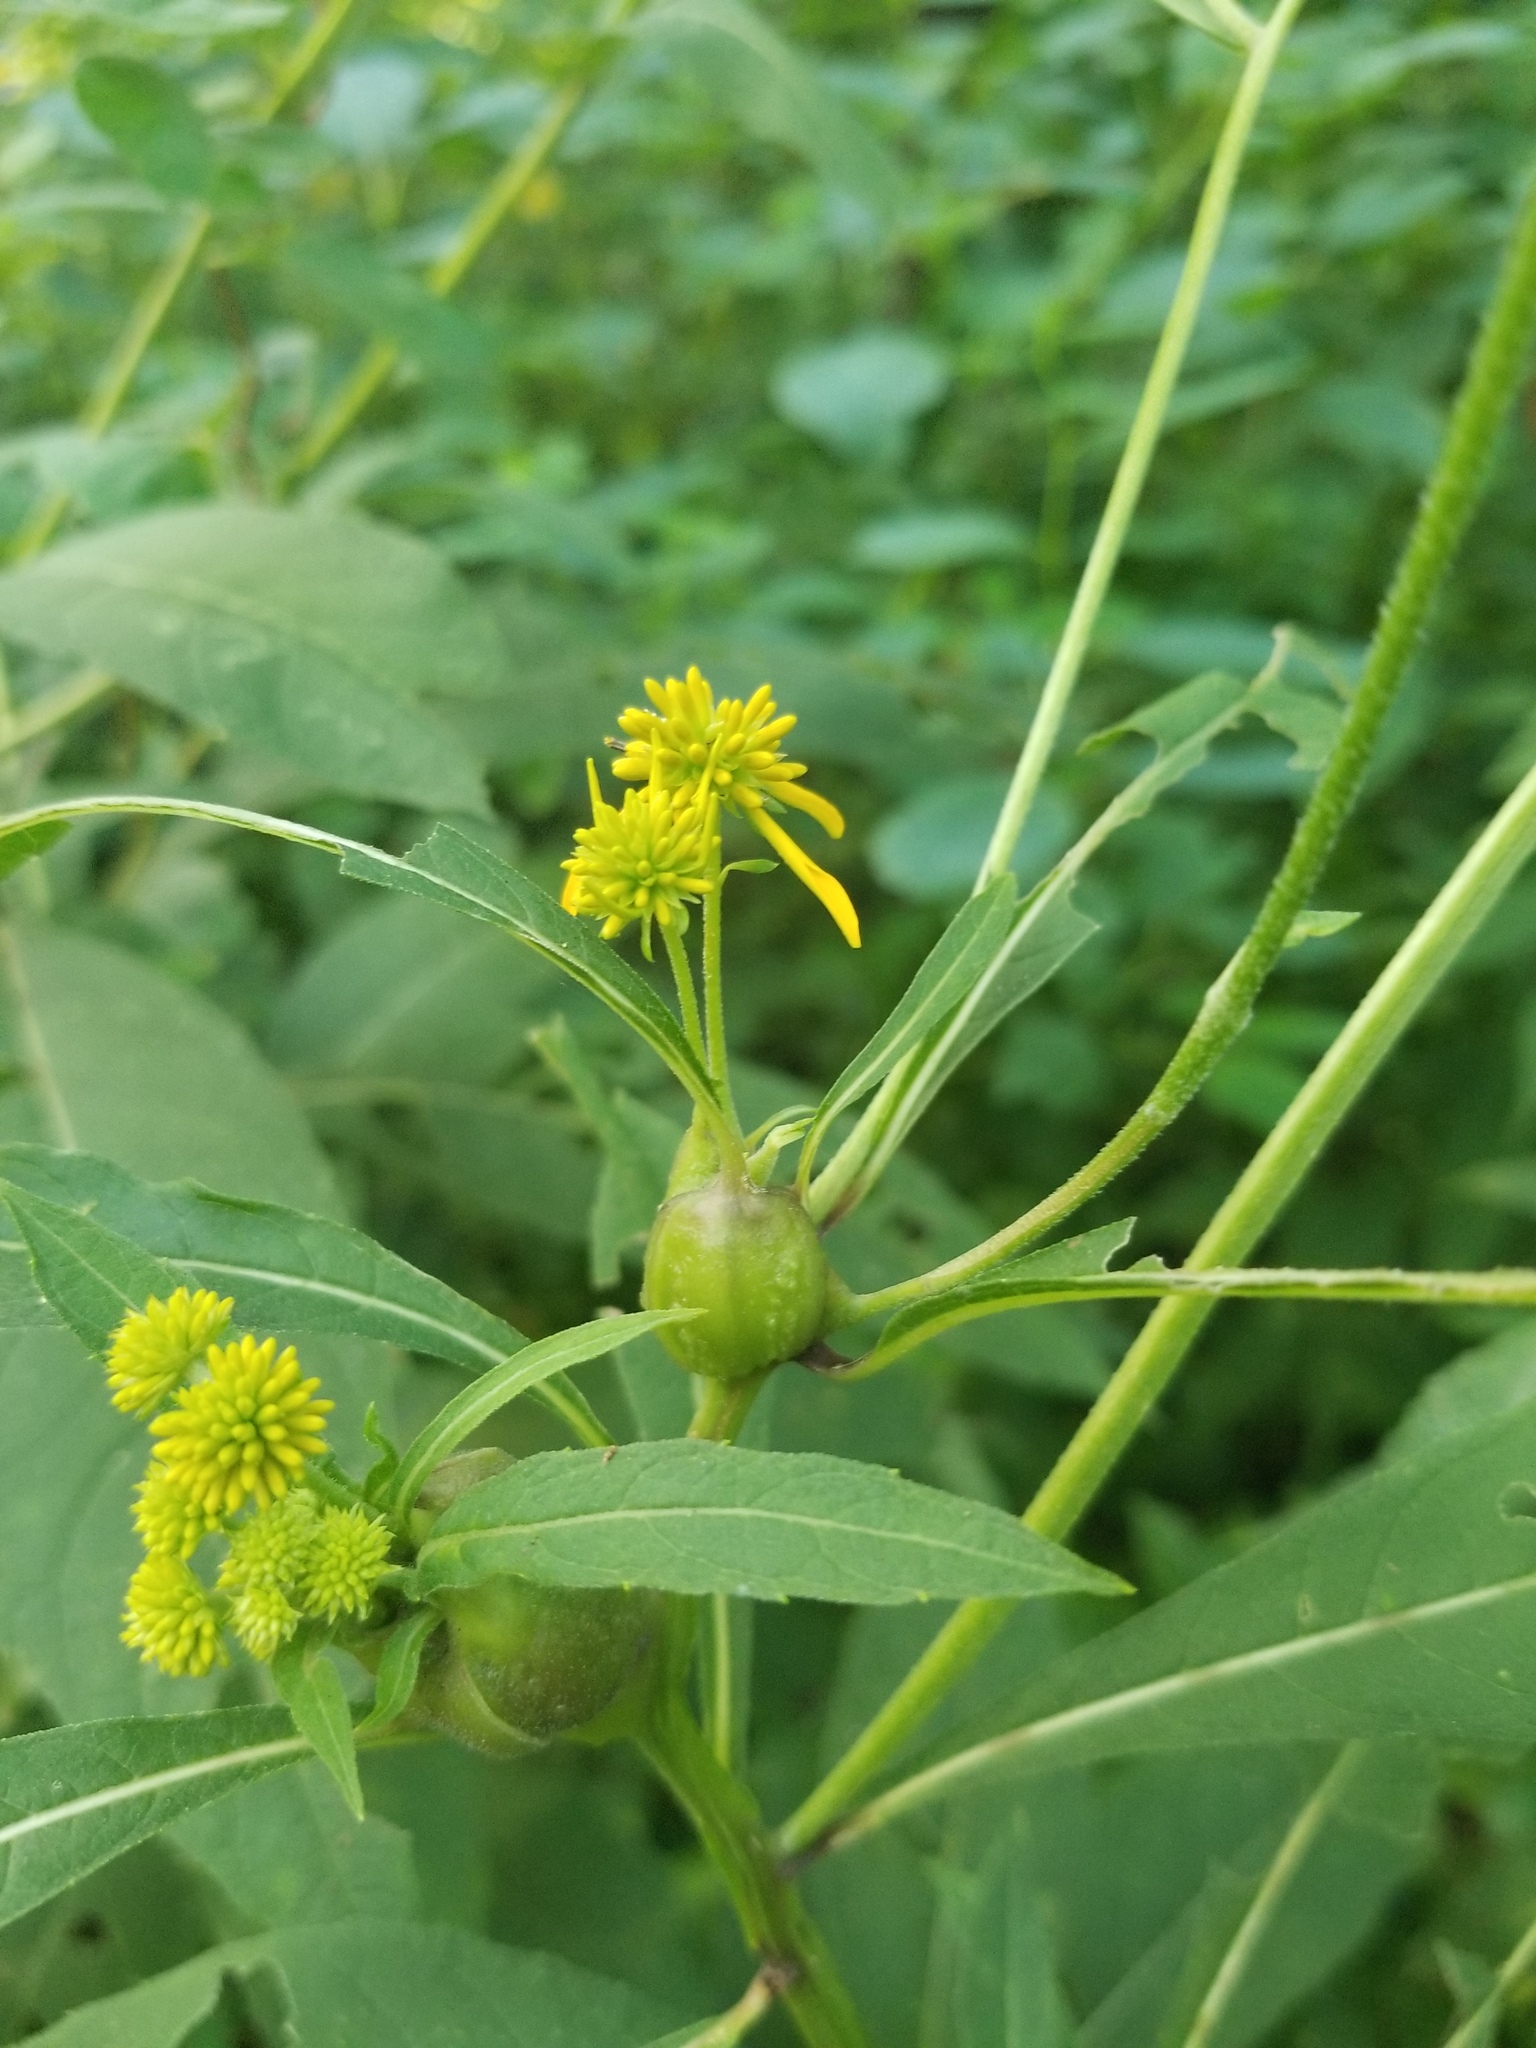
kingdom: Animalia
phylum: Arthropoda
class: Insecta
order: Diptera
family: Cecidomyiidae
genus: Neolasioptera
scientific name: Neolasioptera verbesinae
